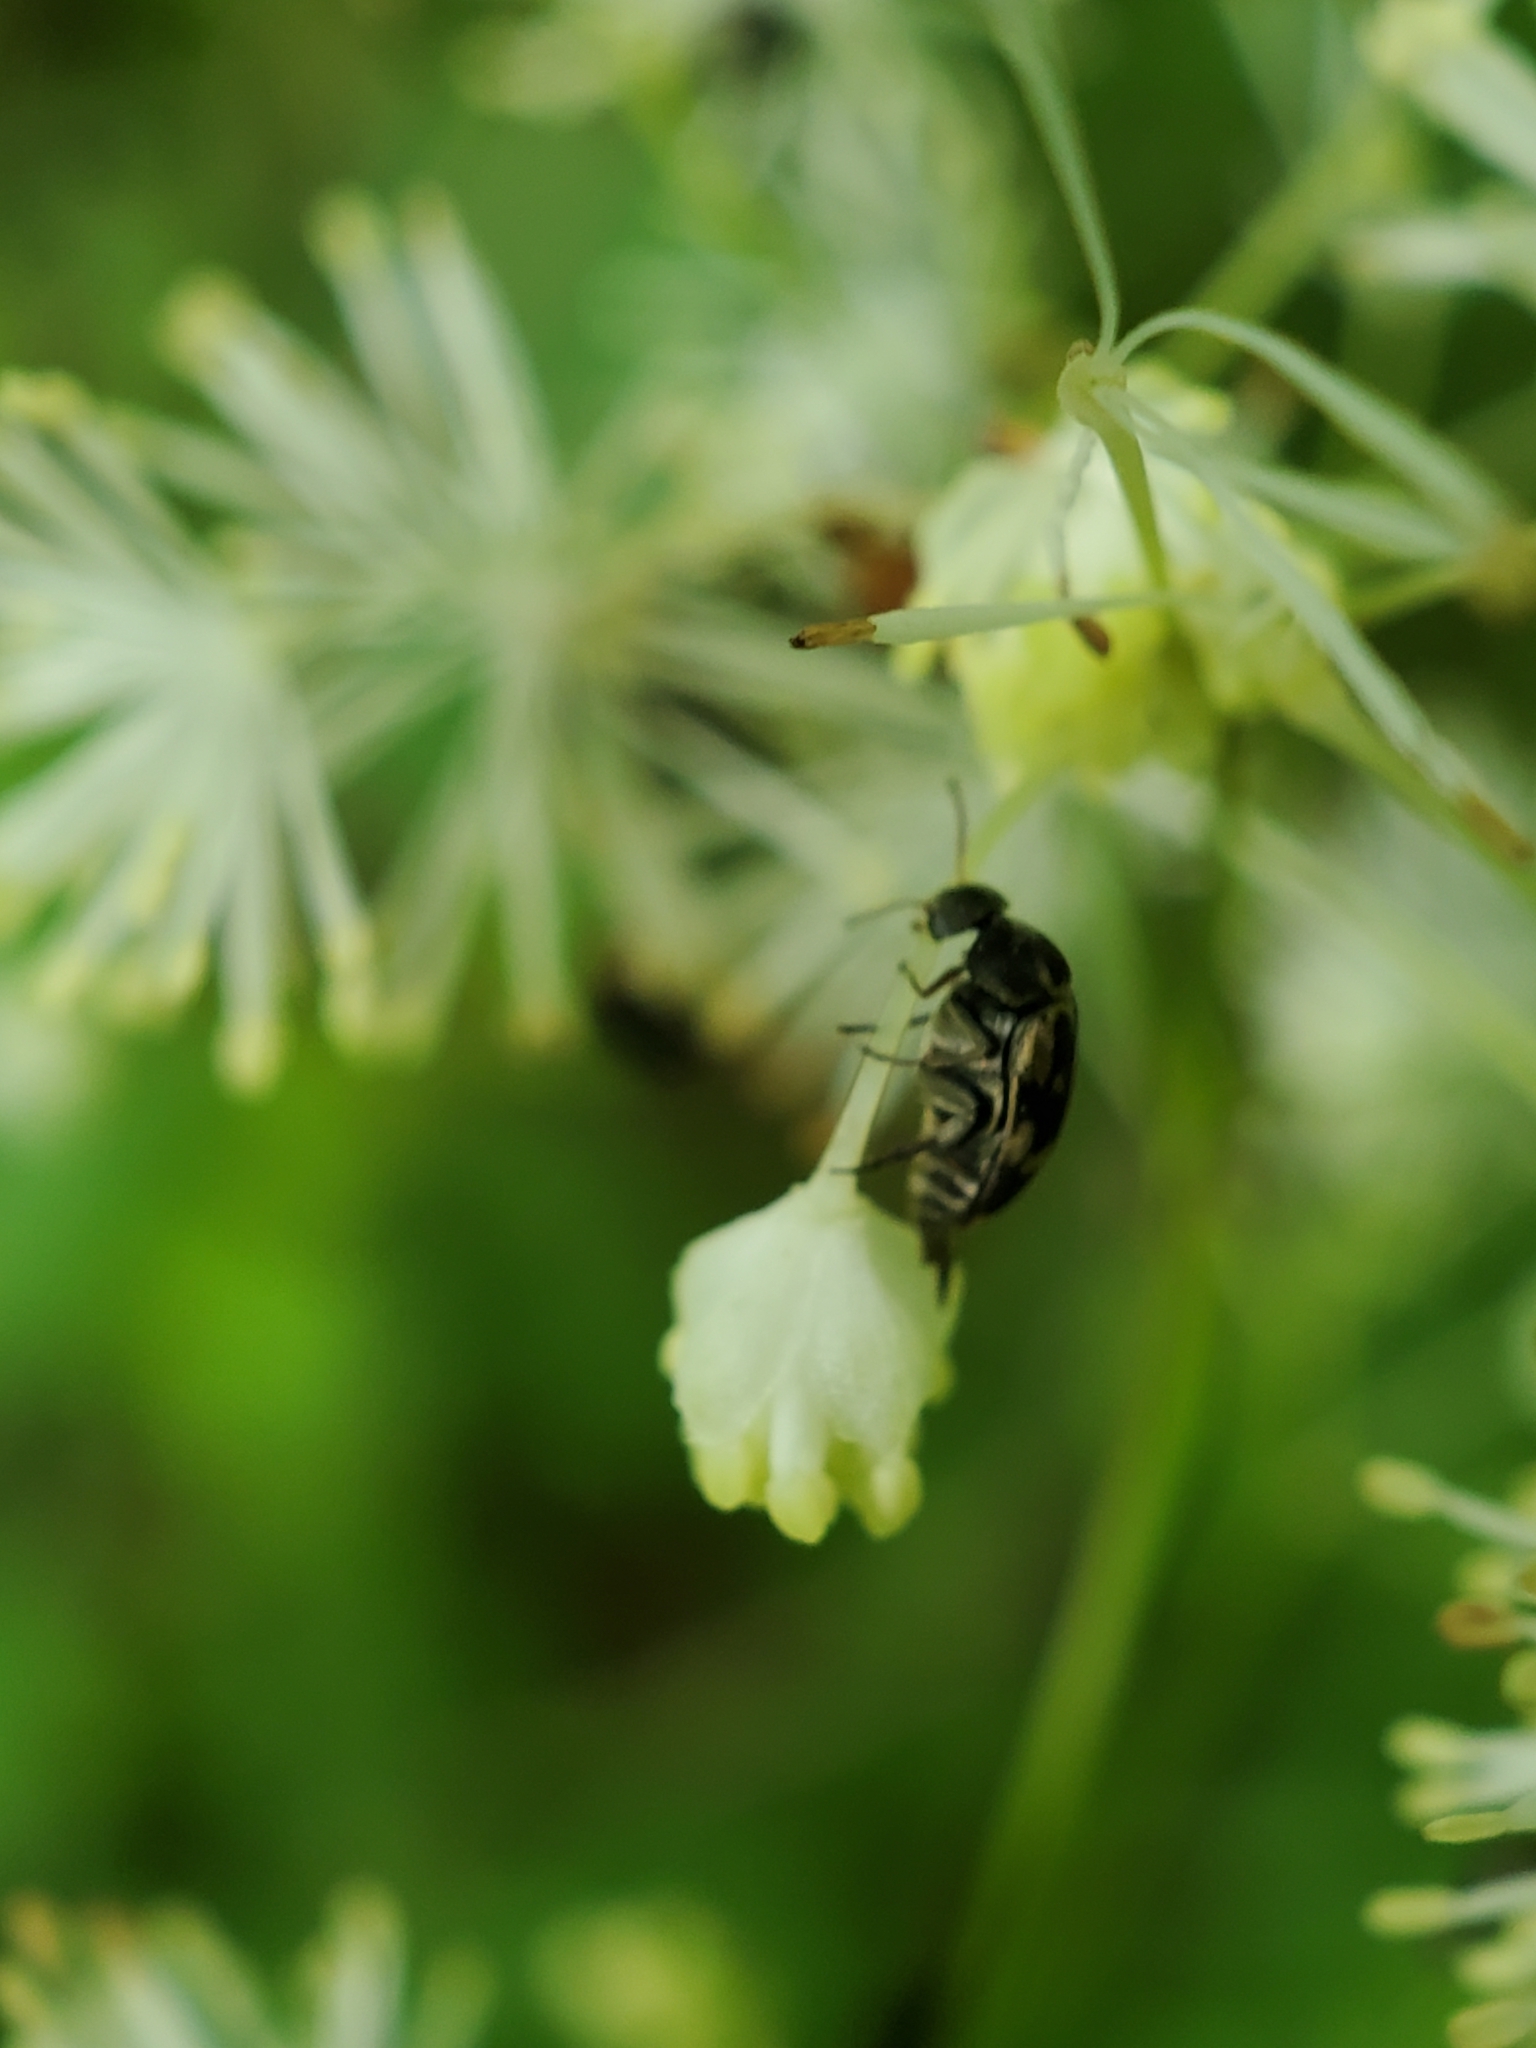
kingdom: Animalia
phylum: Arthropoda
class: Insecta
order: Coleoptera
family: Mordellidae
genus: Falsomordellistena
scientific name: Falsomordellistena pubescens
